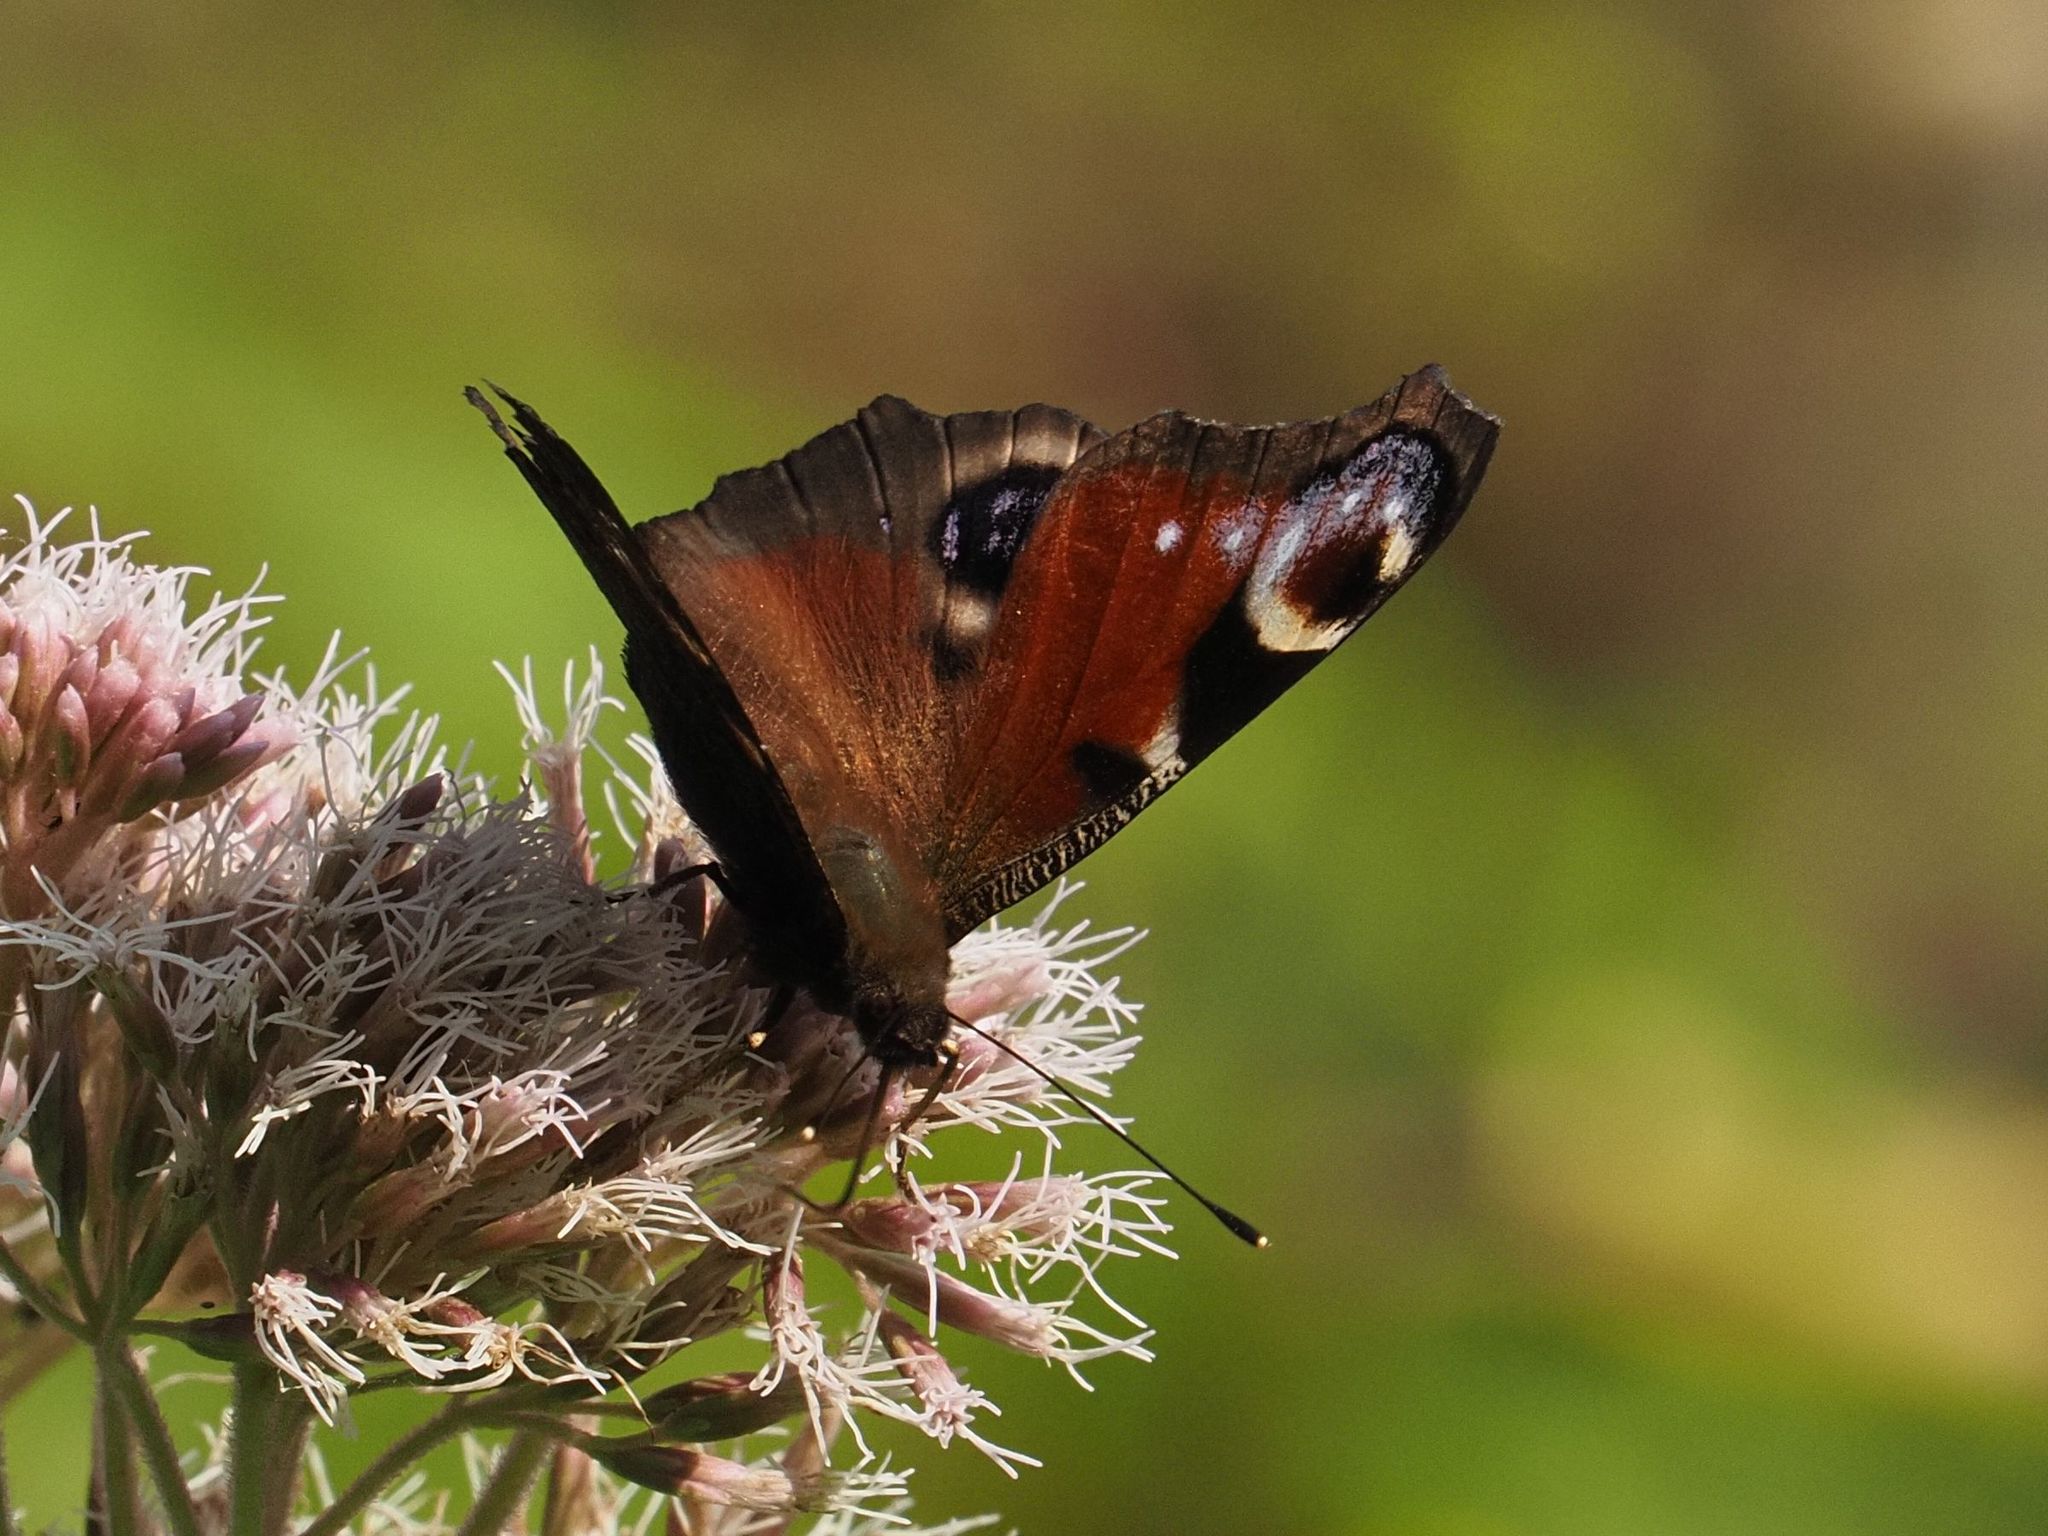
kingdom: Animalia
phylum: Arthropoda
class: Insecta
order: Lepidoptera
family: Nymphalidae
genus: Aglais
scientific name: Aglais io
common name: Peacock
